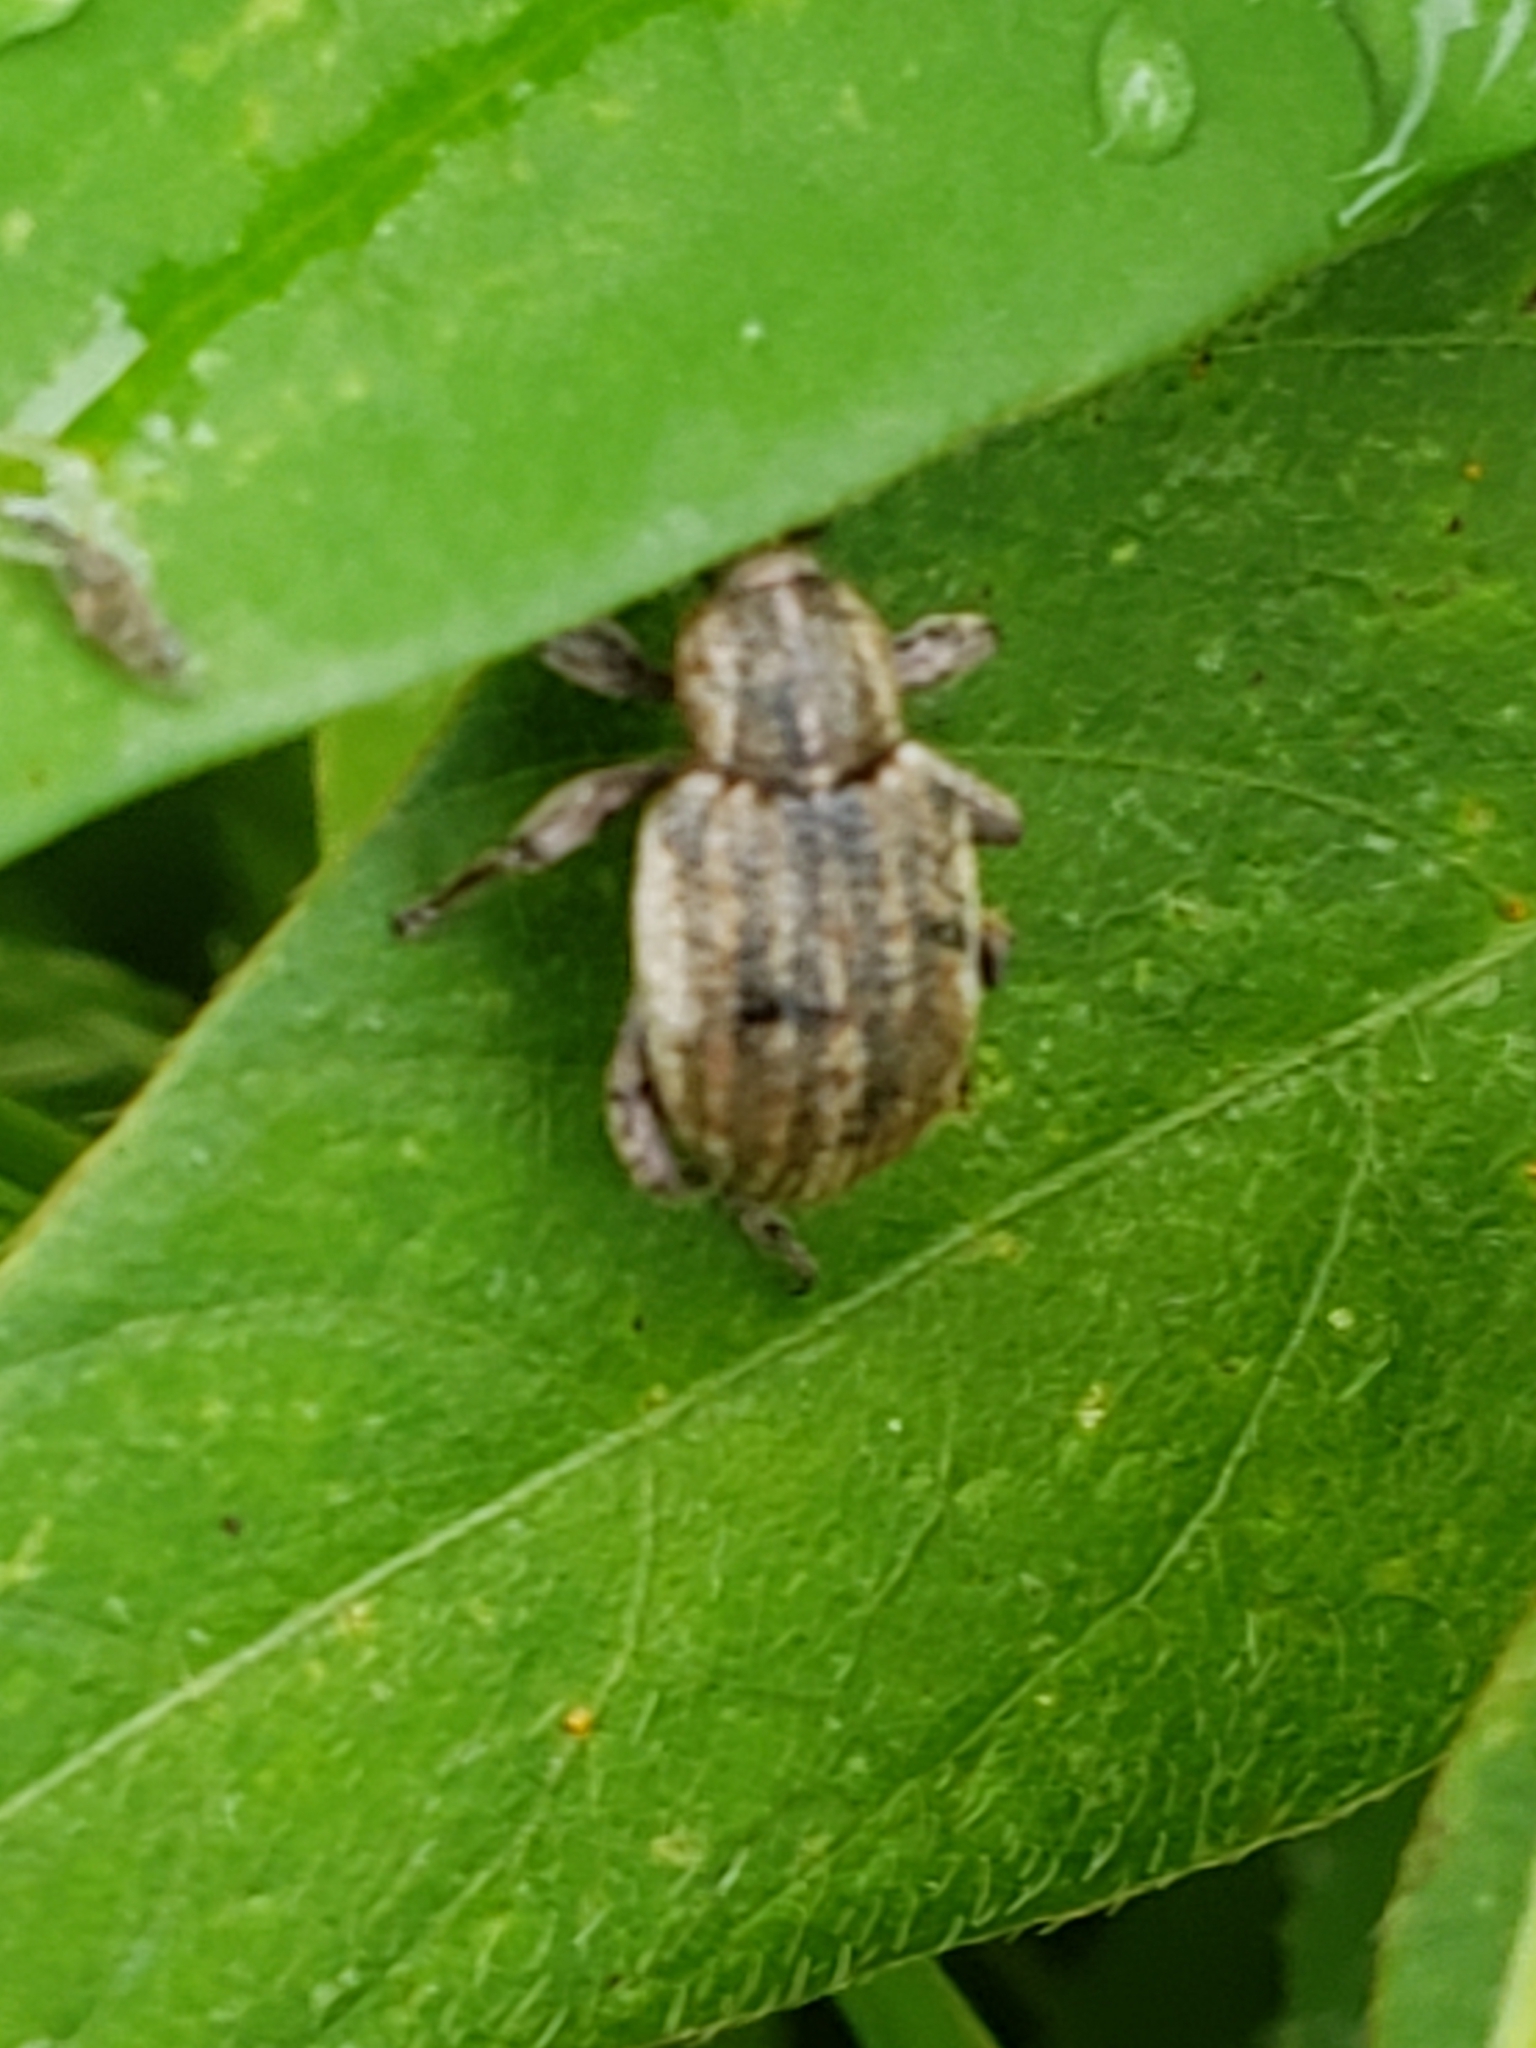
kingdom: Animalia
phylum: Arthropoda
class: Insecta
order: Coleoptera
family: Curculionidae
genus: Brachypera
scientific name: Brachypera zoilus
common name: Clover leaf weevil
